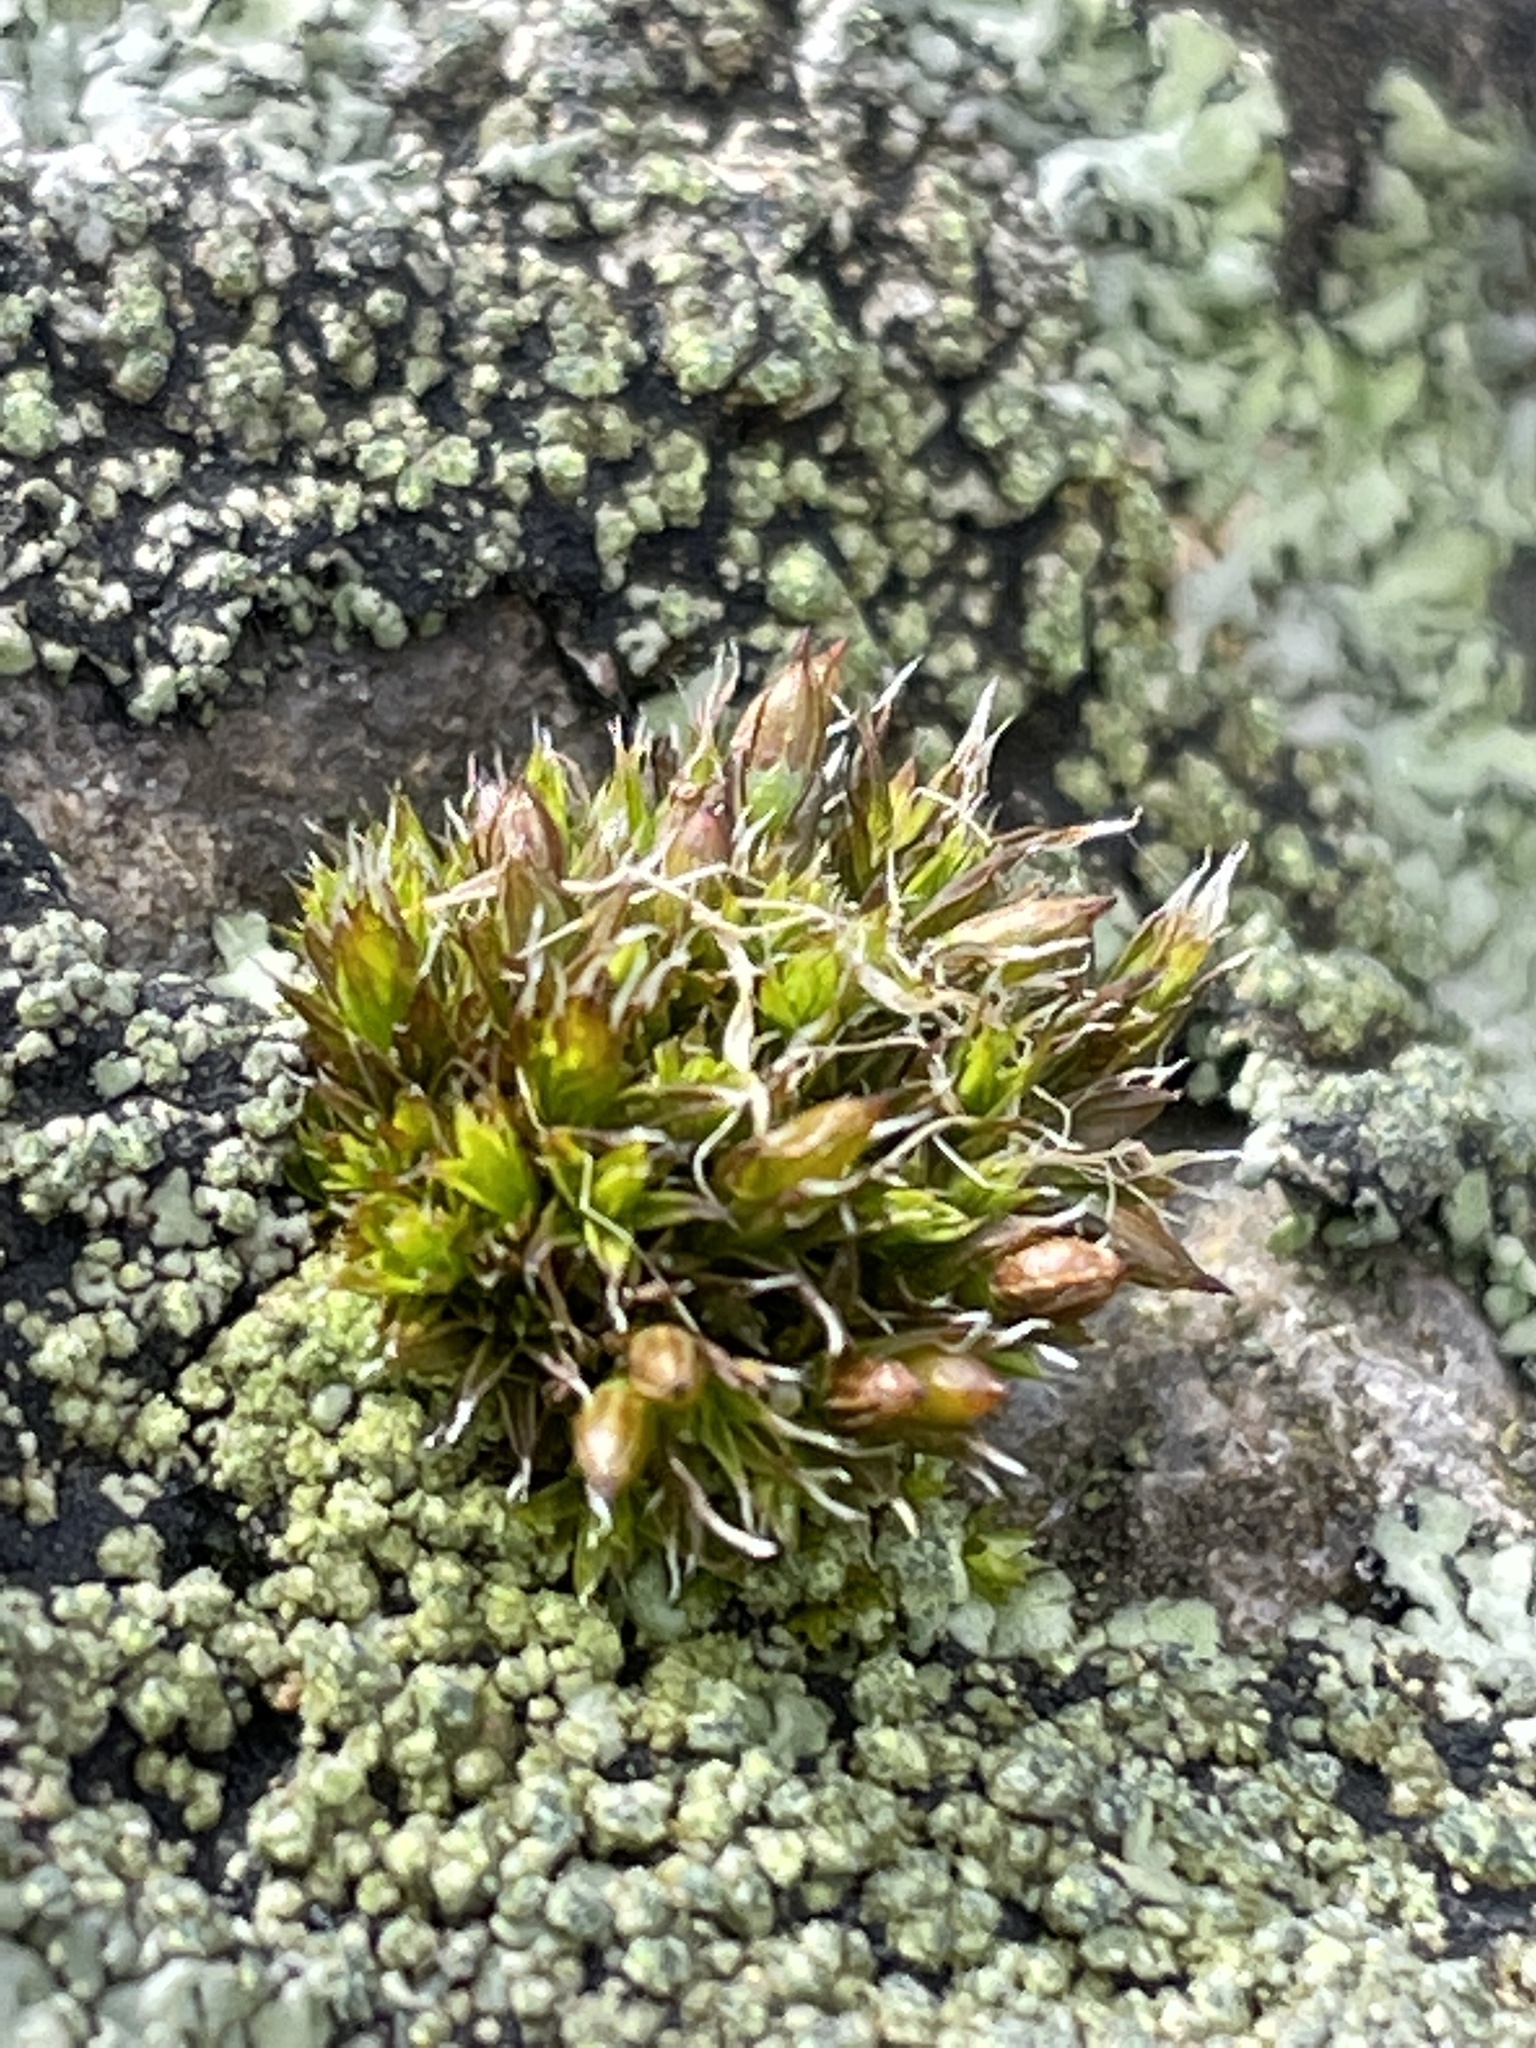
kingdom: Plantae
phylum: Bryophyta
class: Bryopsida
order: Orthotrichales
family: Orthotrichaceae
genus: Orthotrichum
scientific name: Orthotrichum diaphanum
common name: White-tipped bristle-moss
